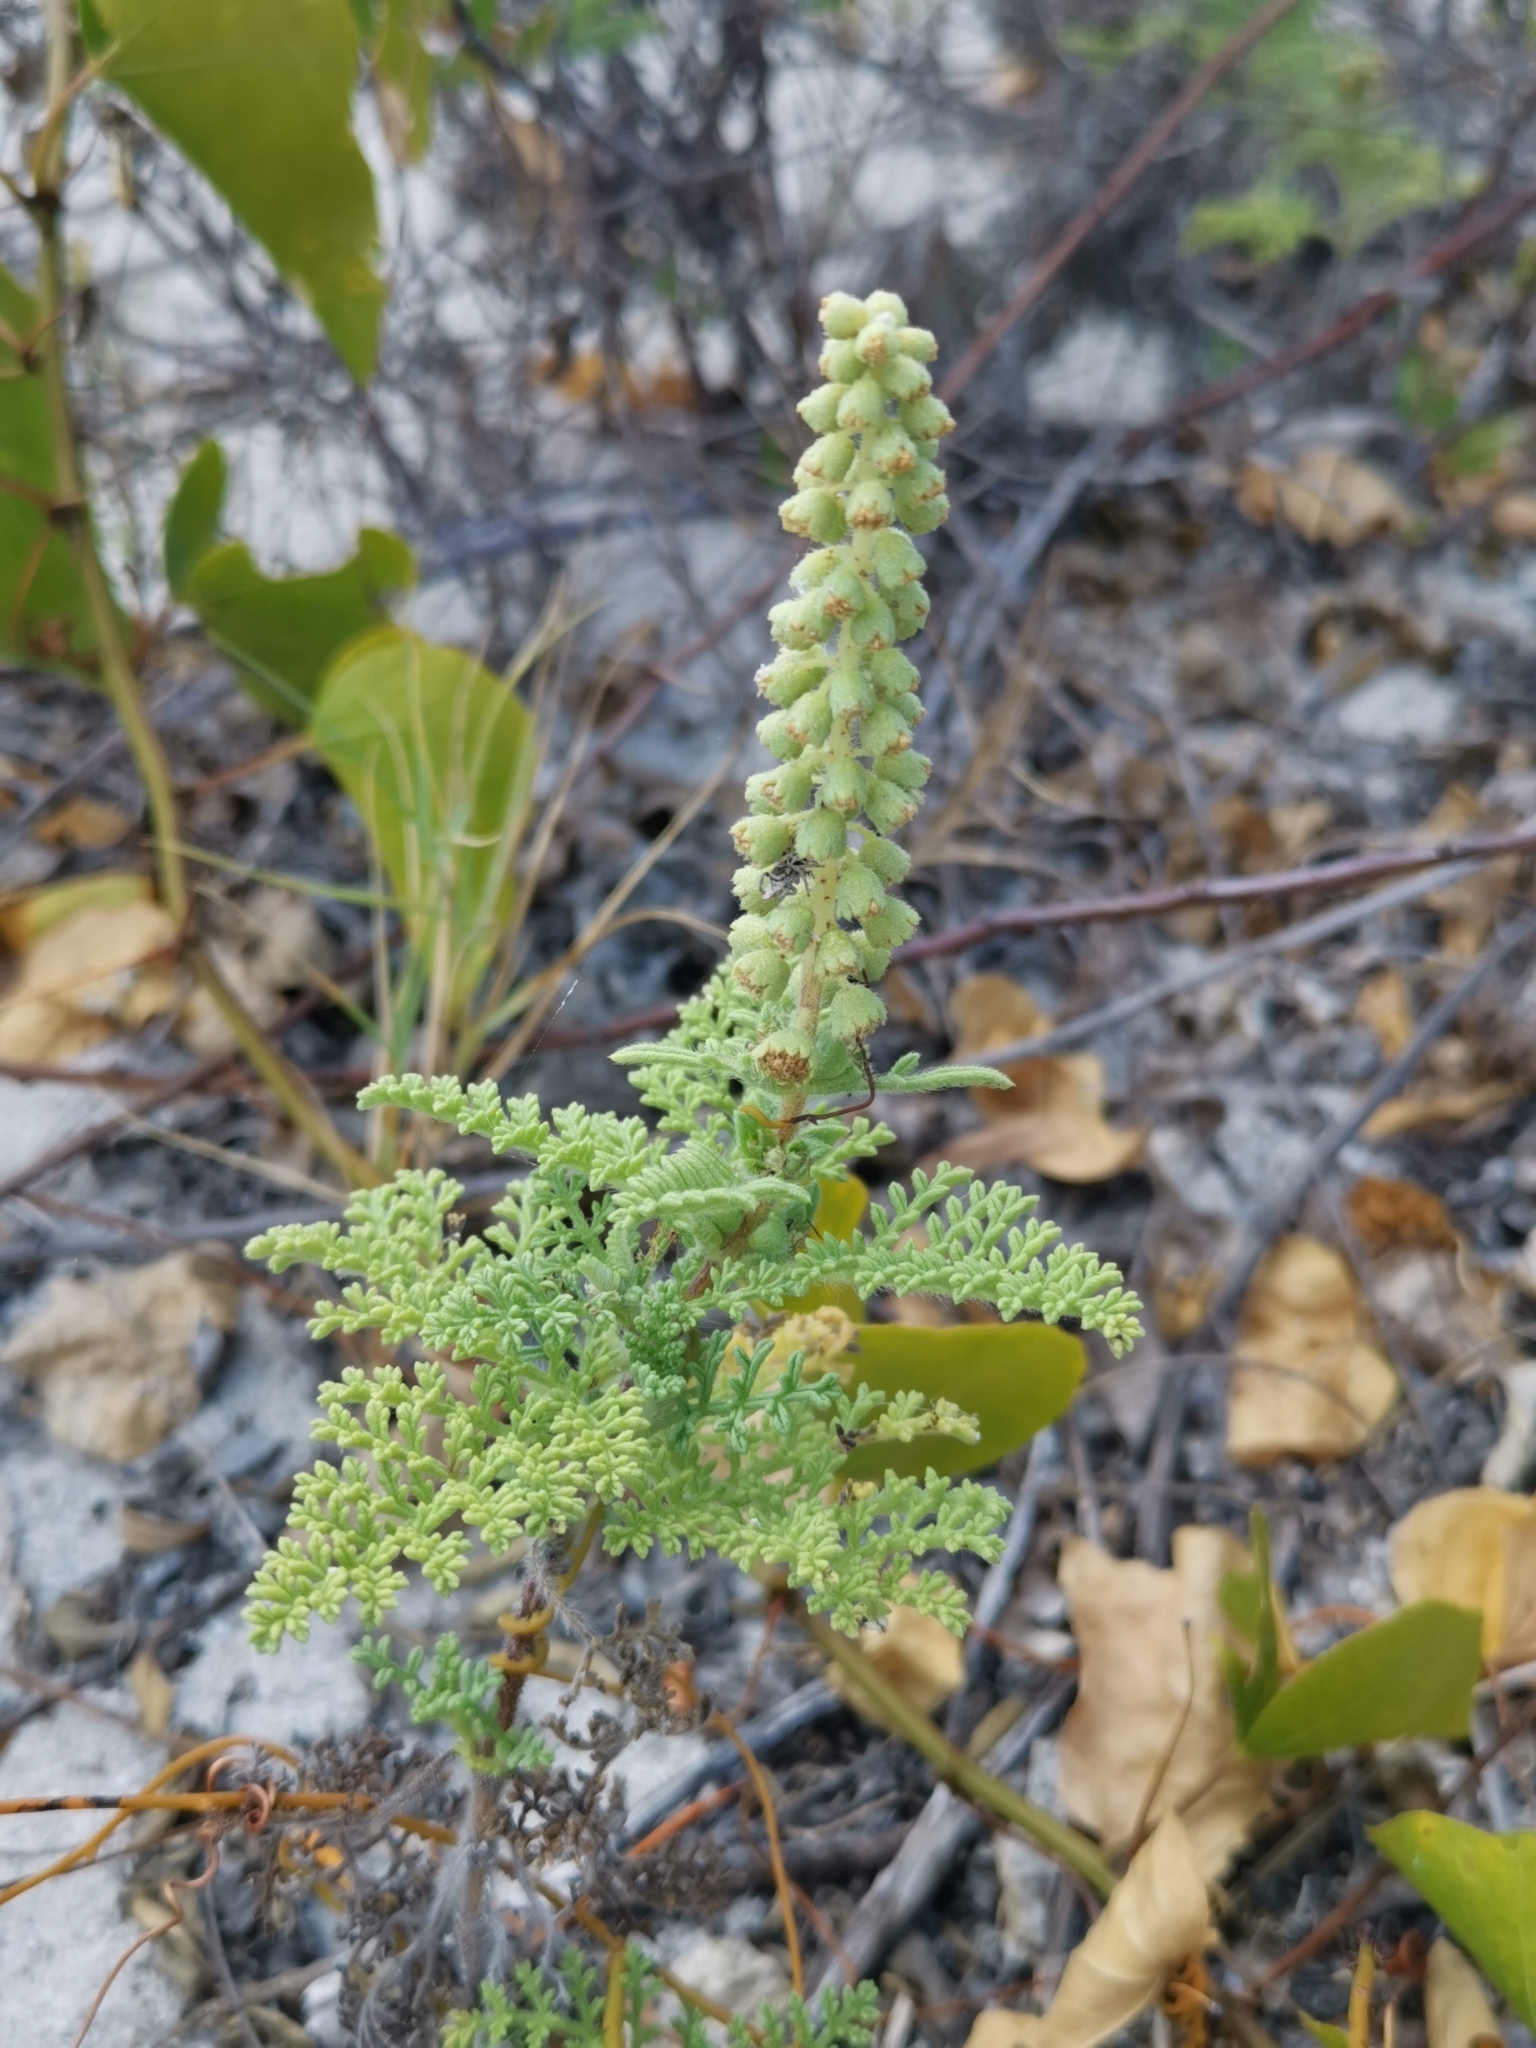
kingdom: Plantae
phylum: Tracheophyta
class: Magnoliopsida
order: Asterales
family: Asteraceae
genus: Ambrosia
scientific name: Ambrosia hispida
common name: Coastal ragweed
